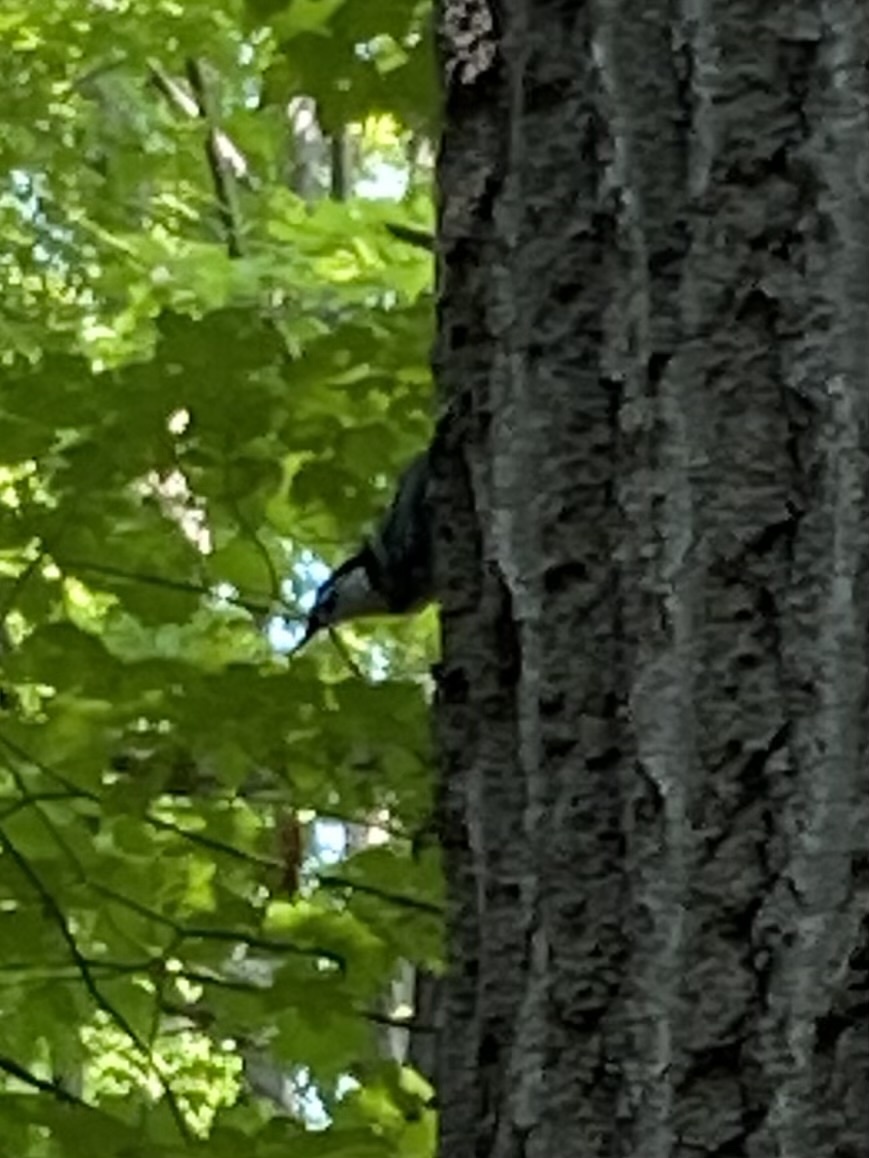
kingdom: Animalia
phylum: Chordata
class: Aves
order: Passeriformes
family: Sittidae
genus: Sitta
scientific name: Sitta carolinensis
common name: White-breasted nuthatch
